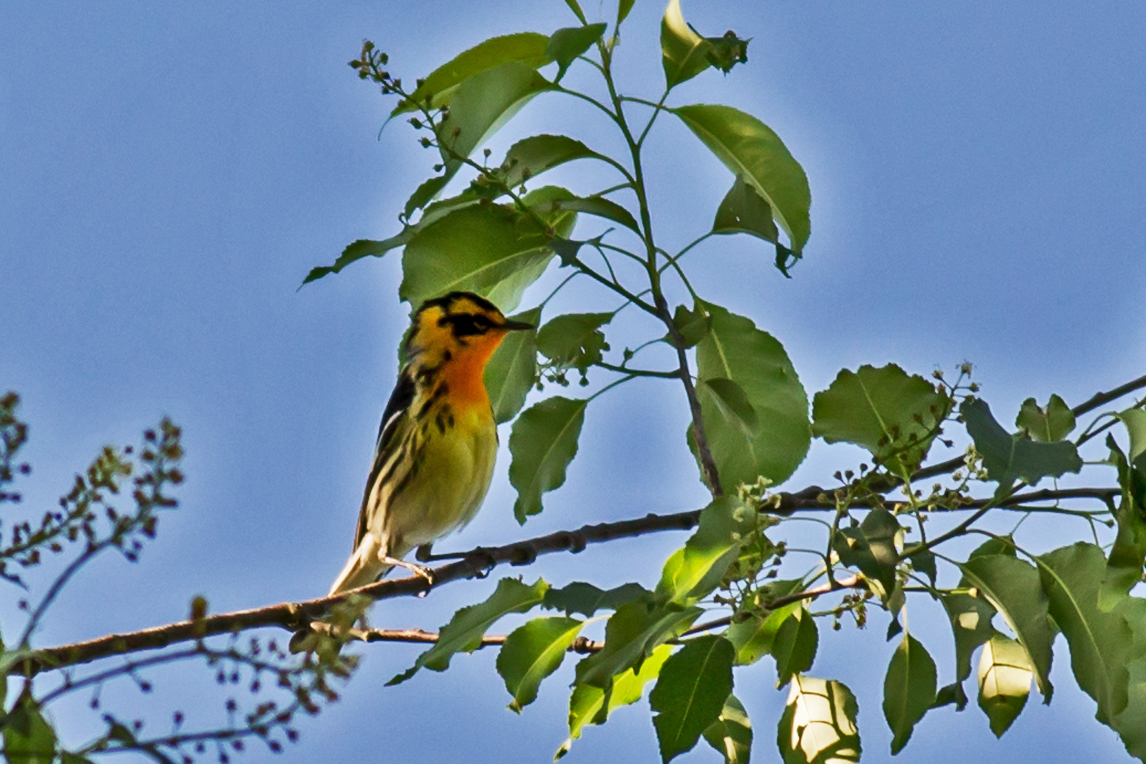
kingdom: Animalia
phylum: Chordata
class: Aves
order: Passeriformes
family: Parulidae
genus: Setophaga
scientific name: Setophaga fusca
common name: Blackburnian warbler
